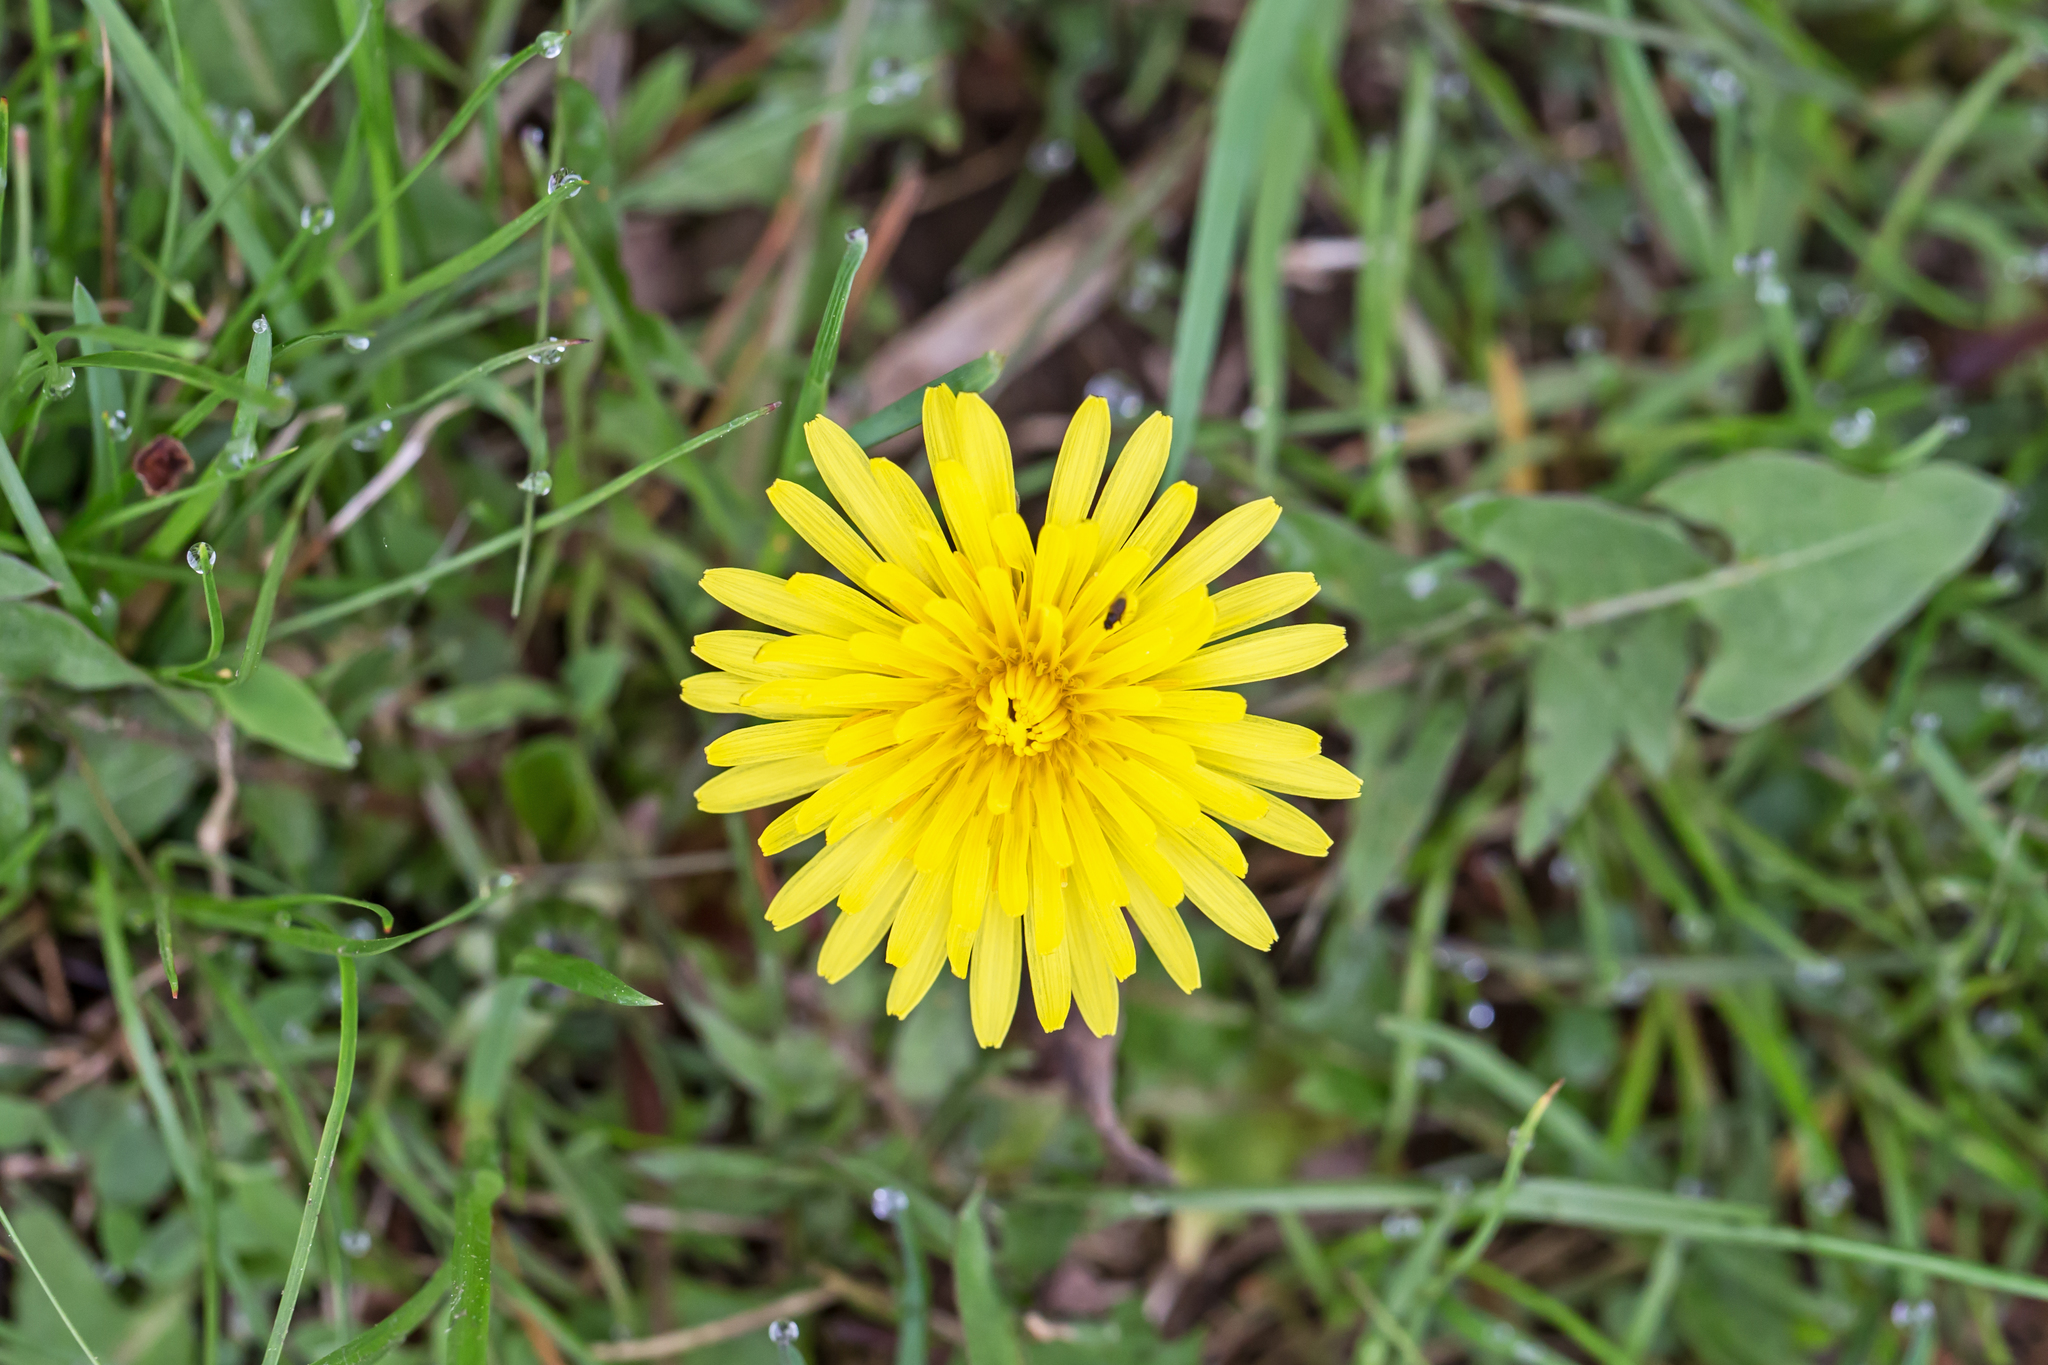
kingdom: Plantae
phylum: Tracheophyta
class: Magnoliopsida
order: Asterales
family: Asteraceae
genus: Taraxacum
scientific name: Taraxacum officinale
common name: Common dandelion
